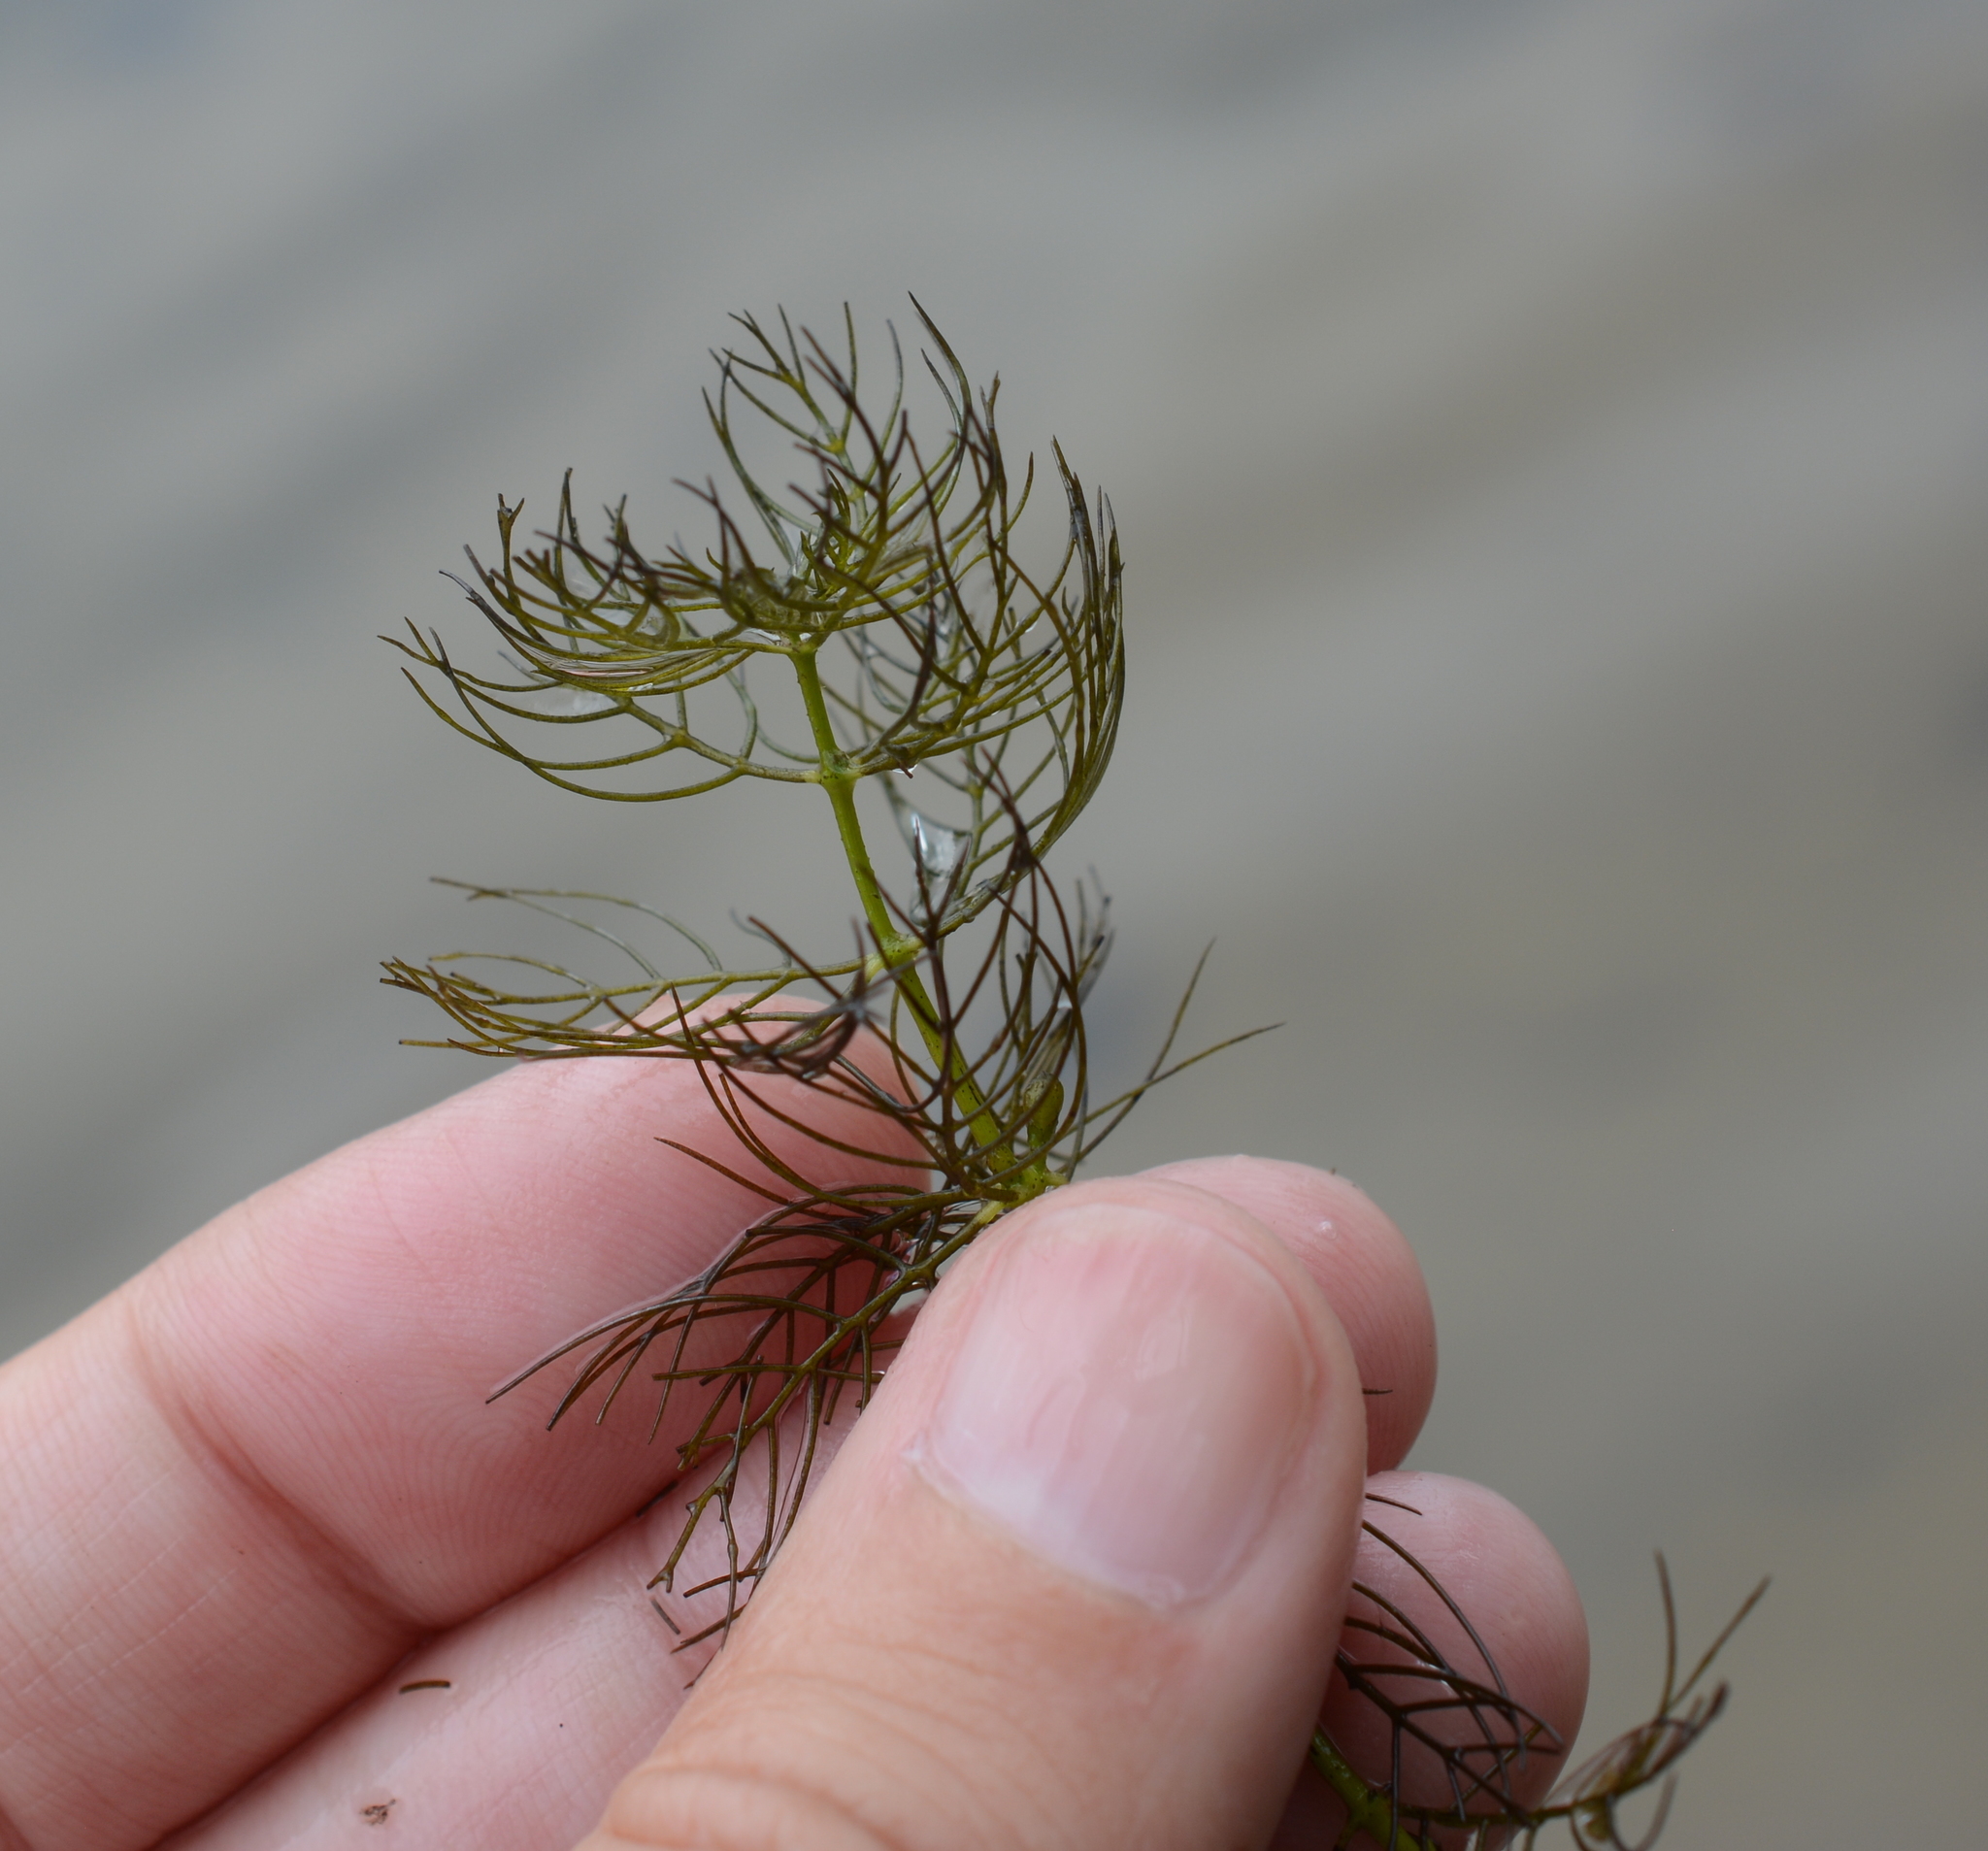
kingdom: Plantae
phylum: Tracheophyta
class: Magnoliopsida
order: Saxifragales
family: Haloragaceae
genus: Myriophyllum
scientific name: Myriophyllum sibiricum
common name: Siberian water-milfoil
